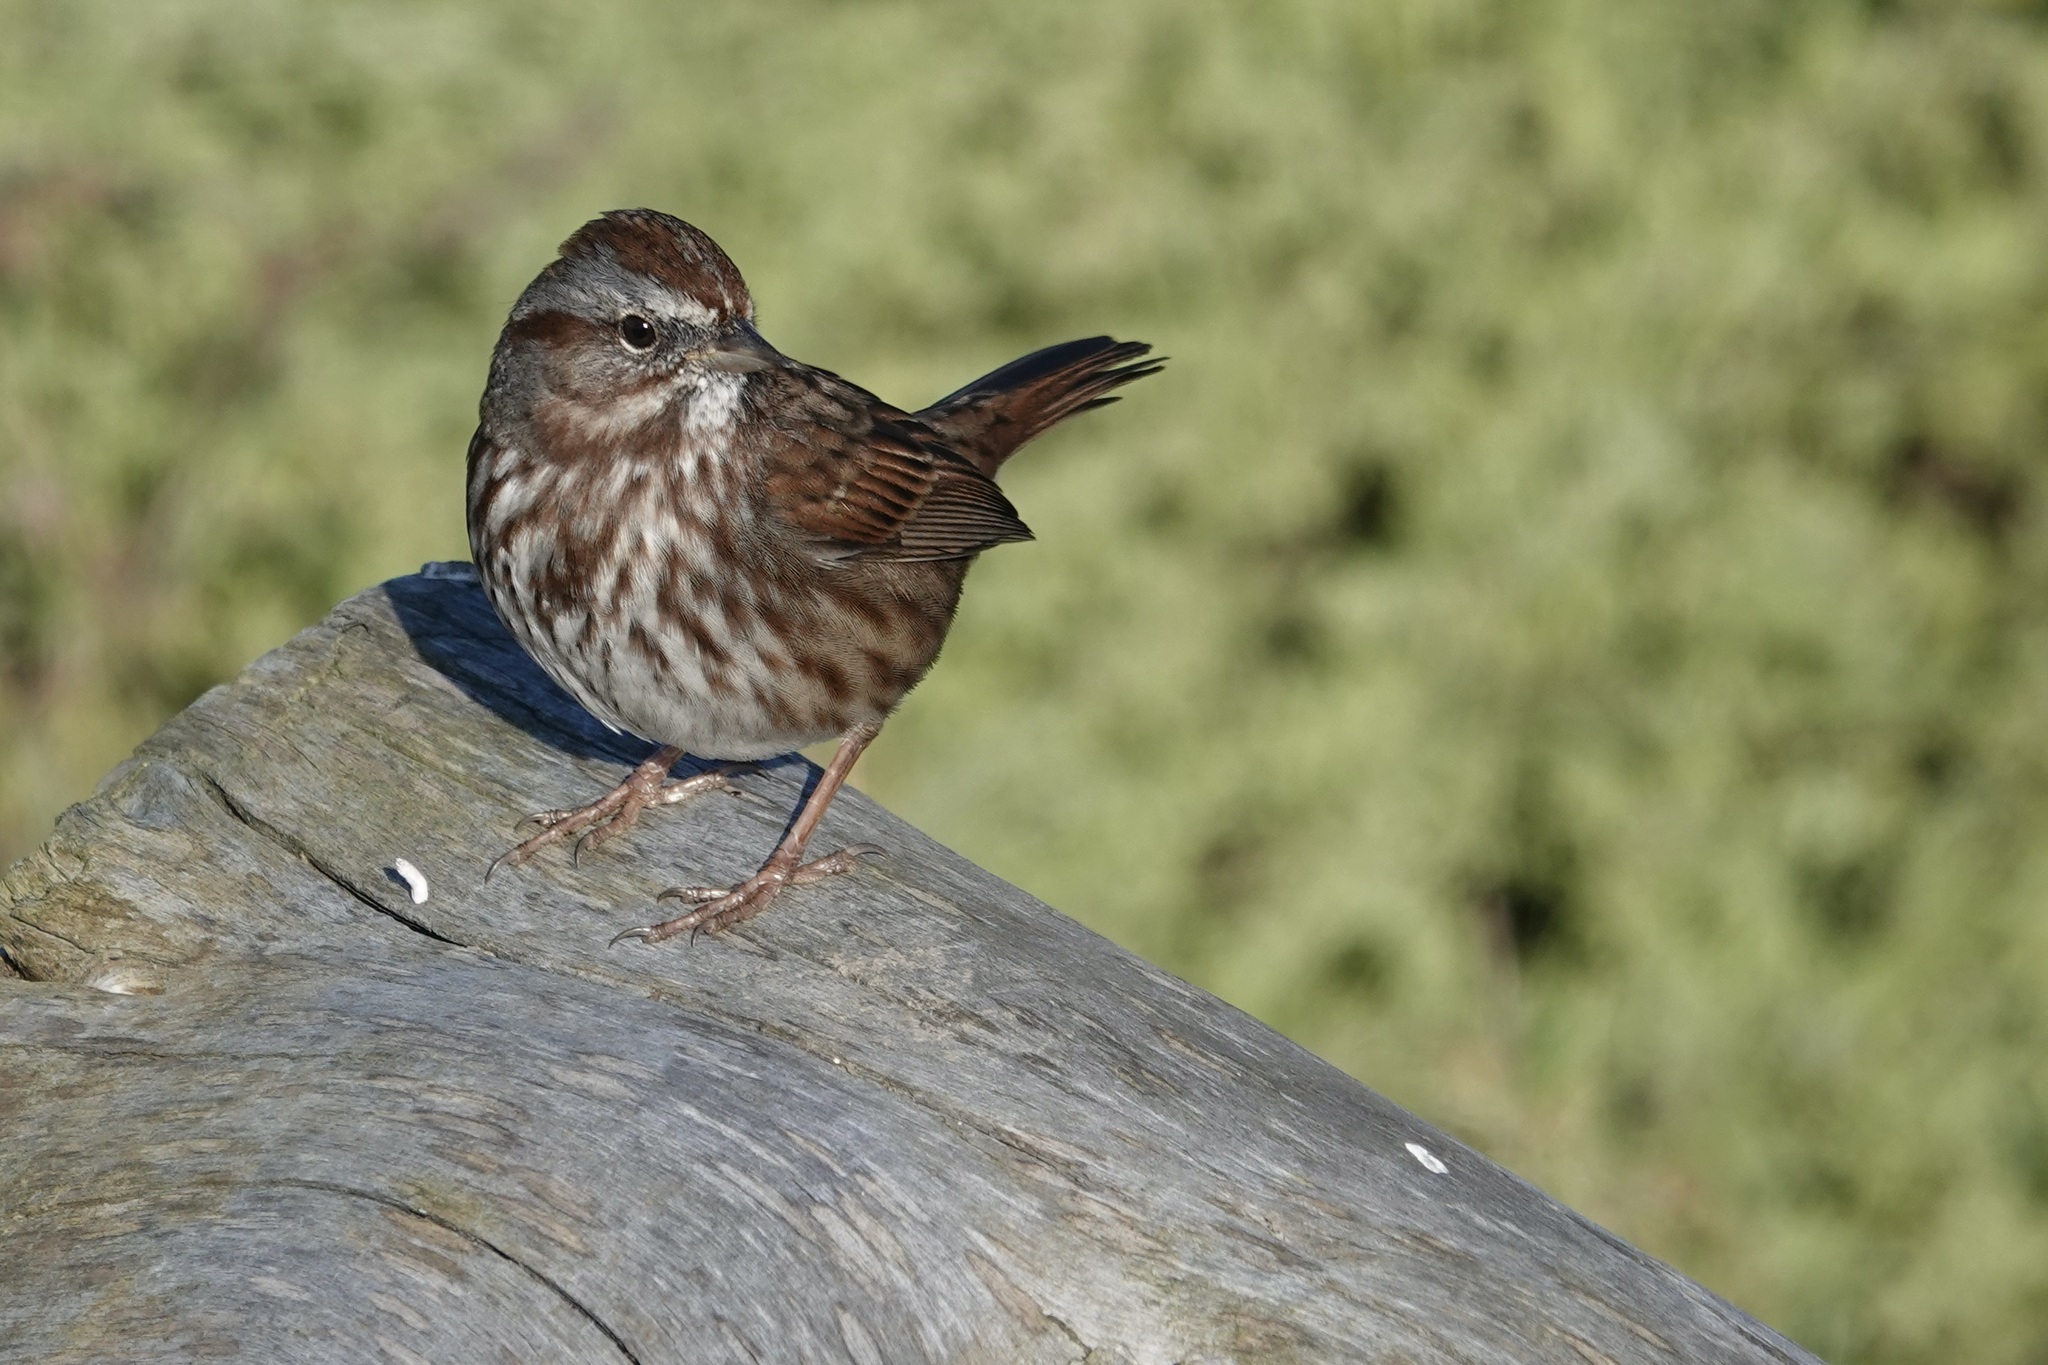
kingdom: Animalia
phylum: Chordata
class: Aves
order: Passeriformes
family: Passerellidae
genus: Melospiza
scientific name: Melospiza melodia
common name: Song sparrow
